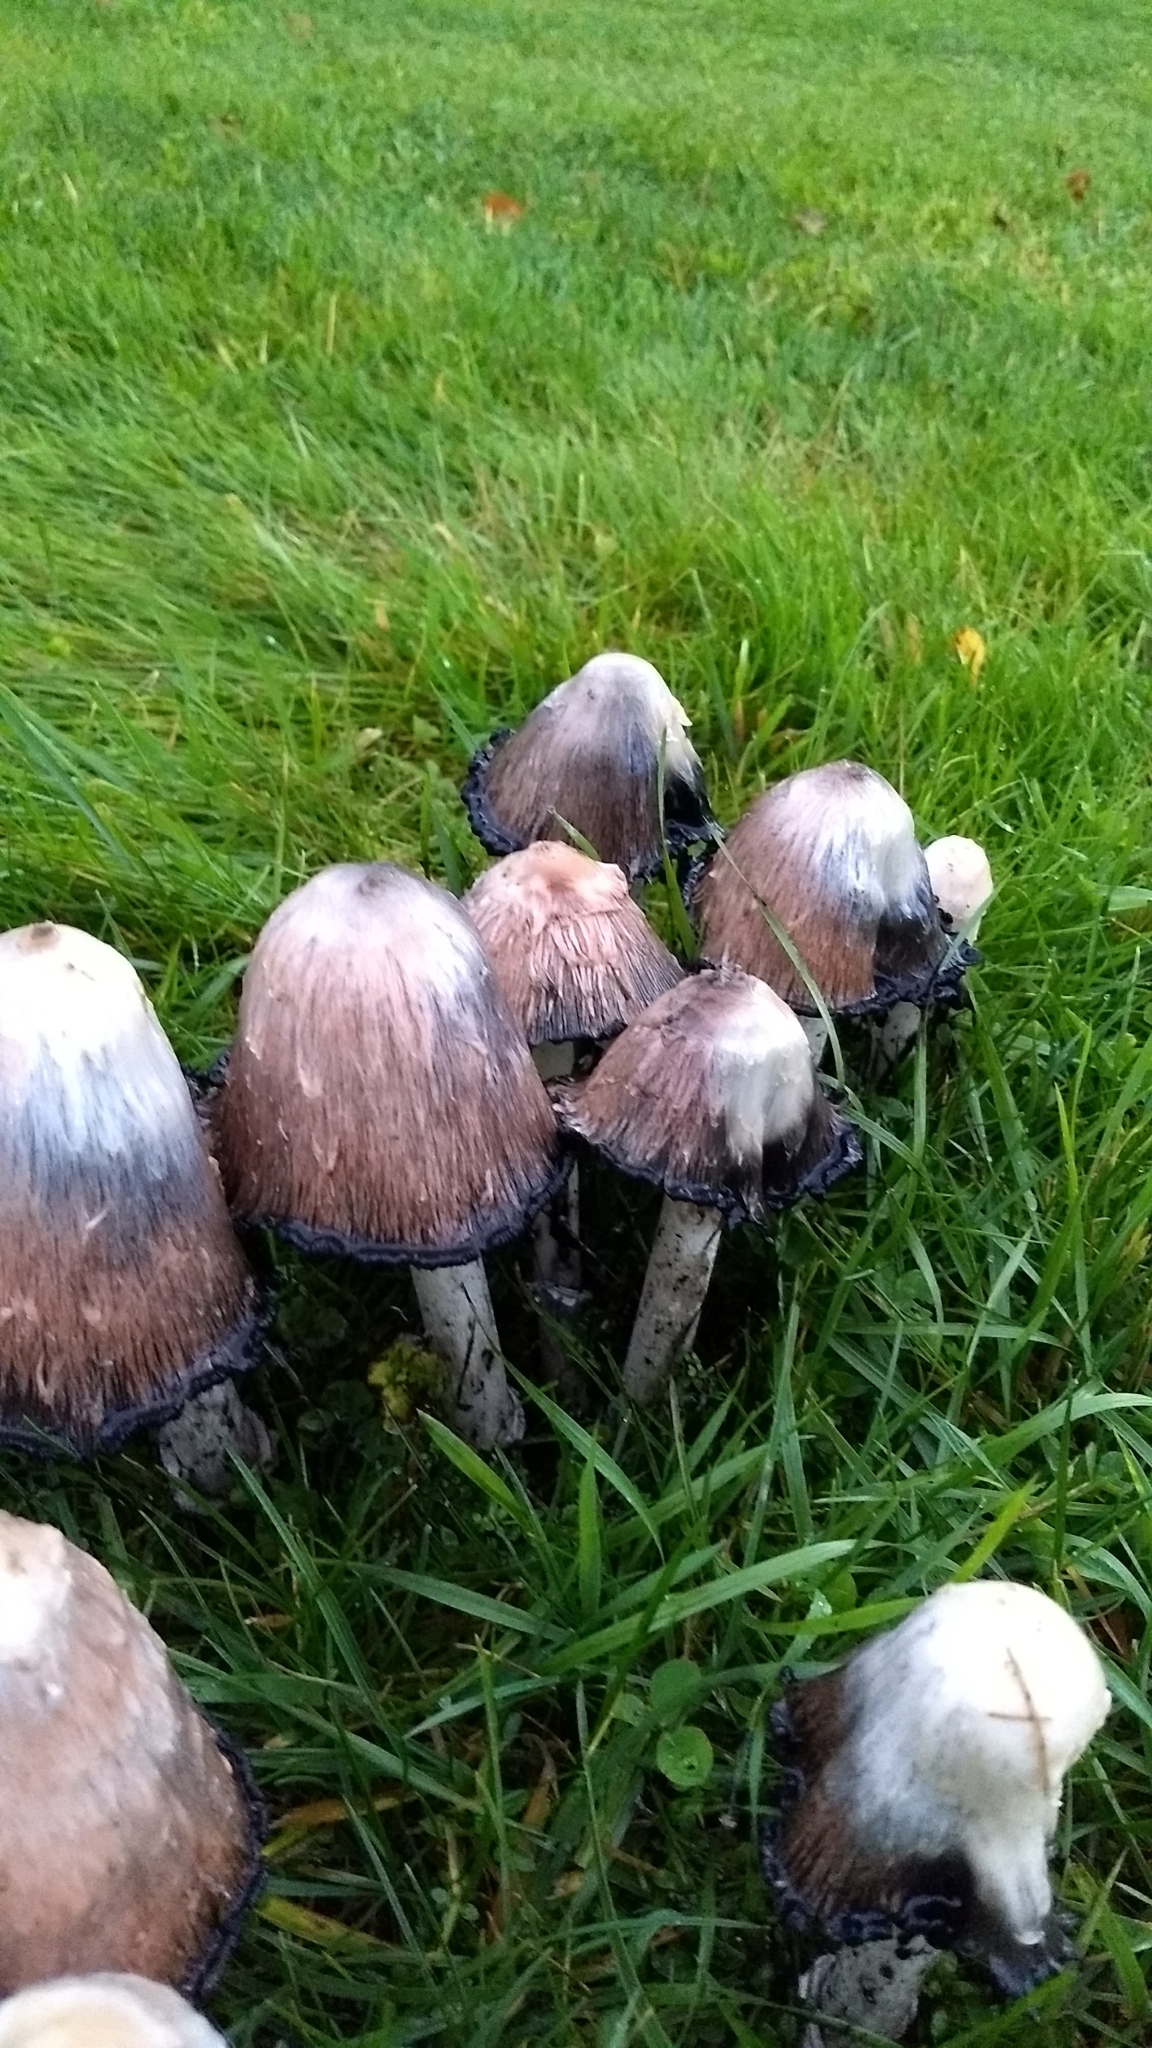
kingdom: Fungi
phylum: Basidiomycota
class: Agaricomycetes
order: Agaricales
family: Agaricaceae
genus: Coprinus
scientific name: Coprinus comatus
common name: Lawyer's wig
